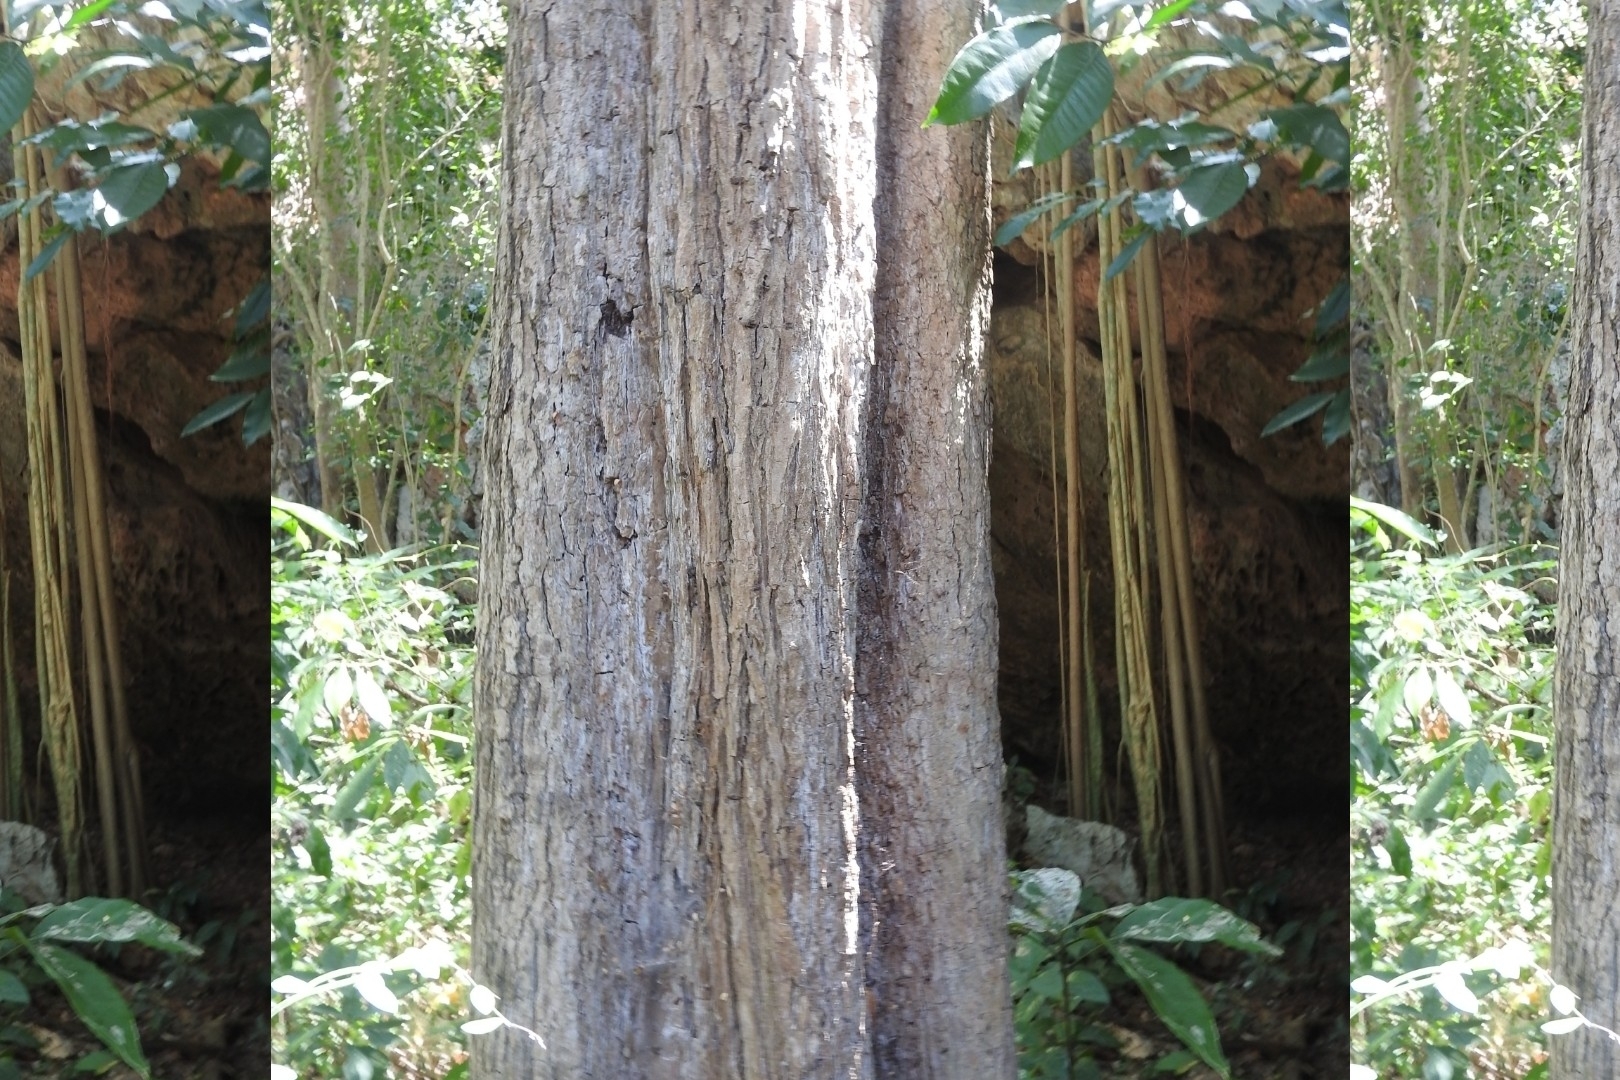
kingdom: Plantae
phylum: Tracheophyta
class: Magnoliopsida
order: Ericales
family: Sapotaceae
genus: Manilkara
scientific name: Manilkara zapota
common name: Sapodilla
